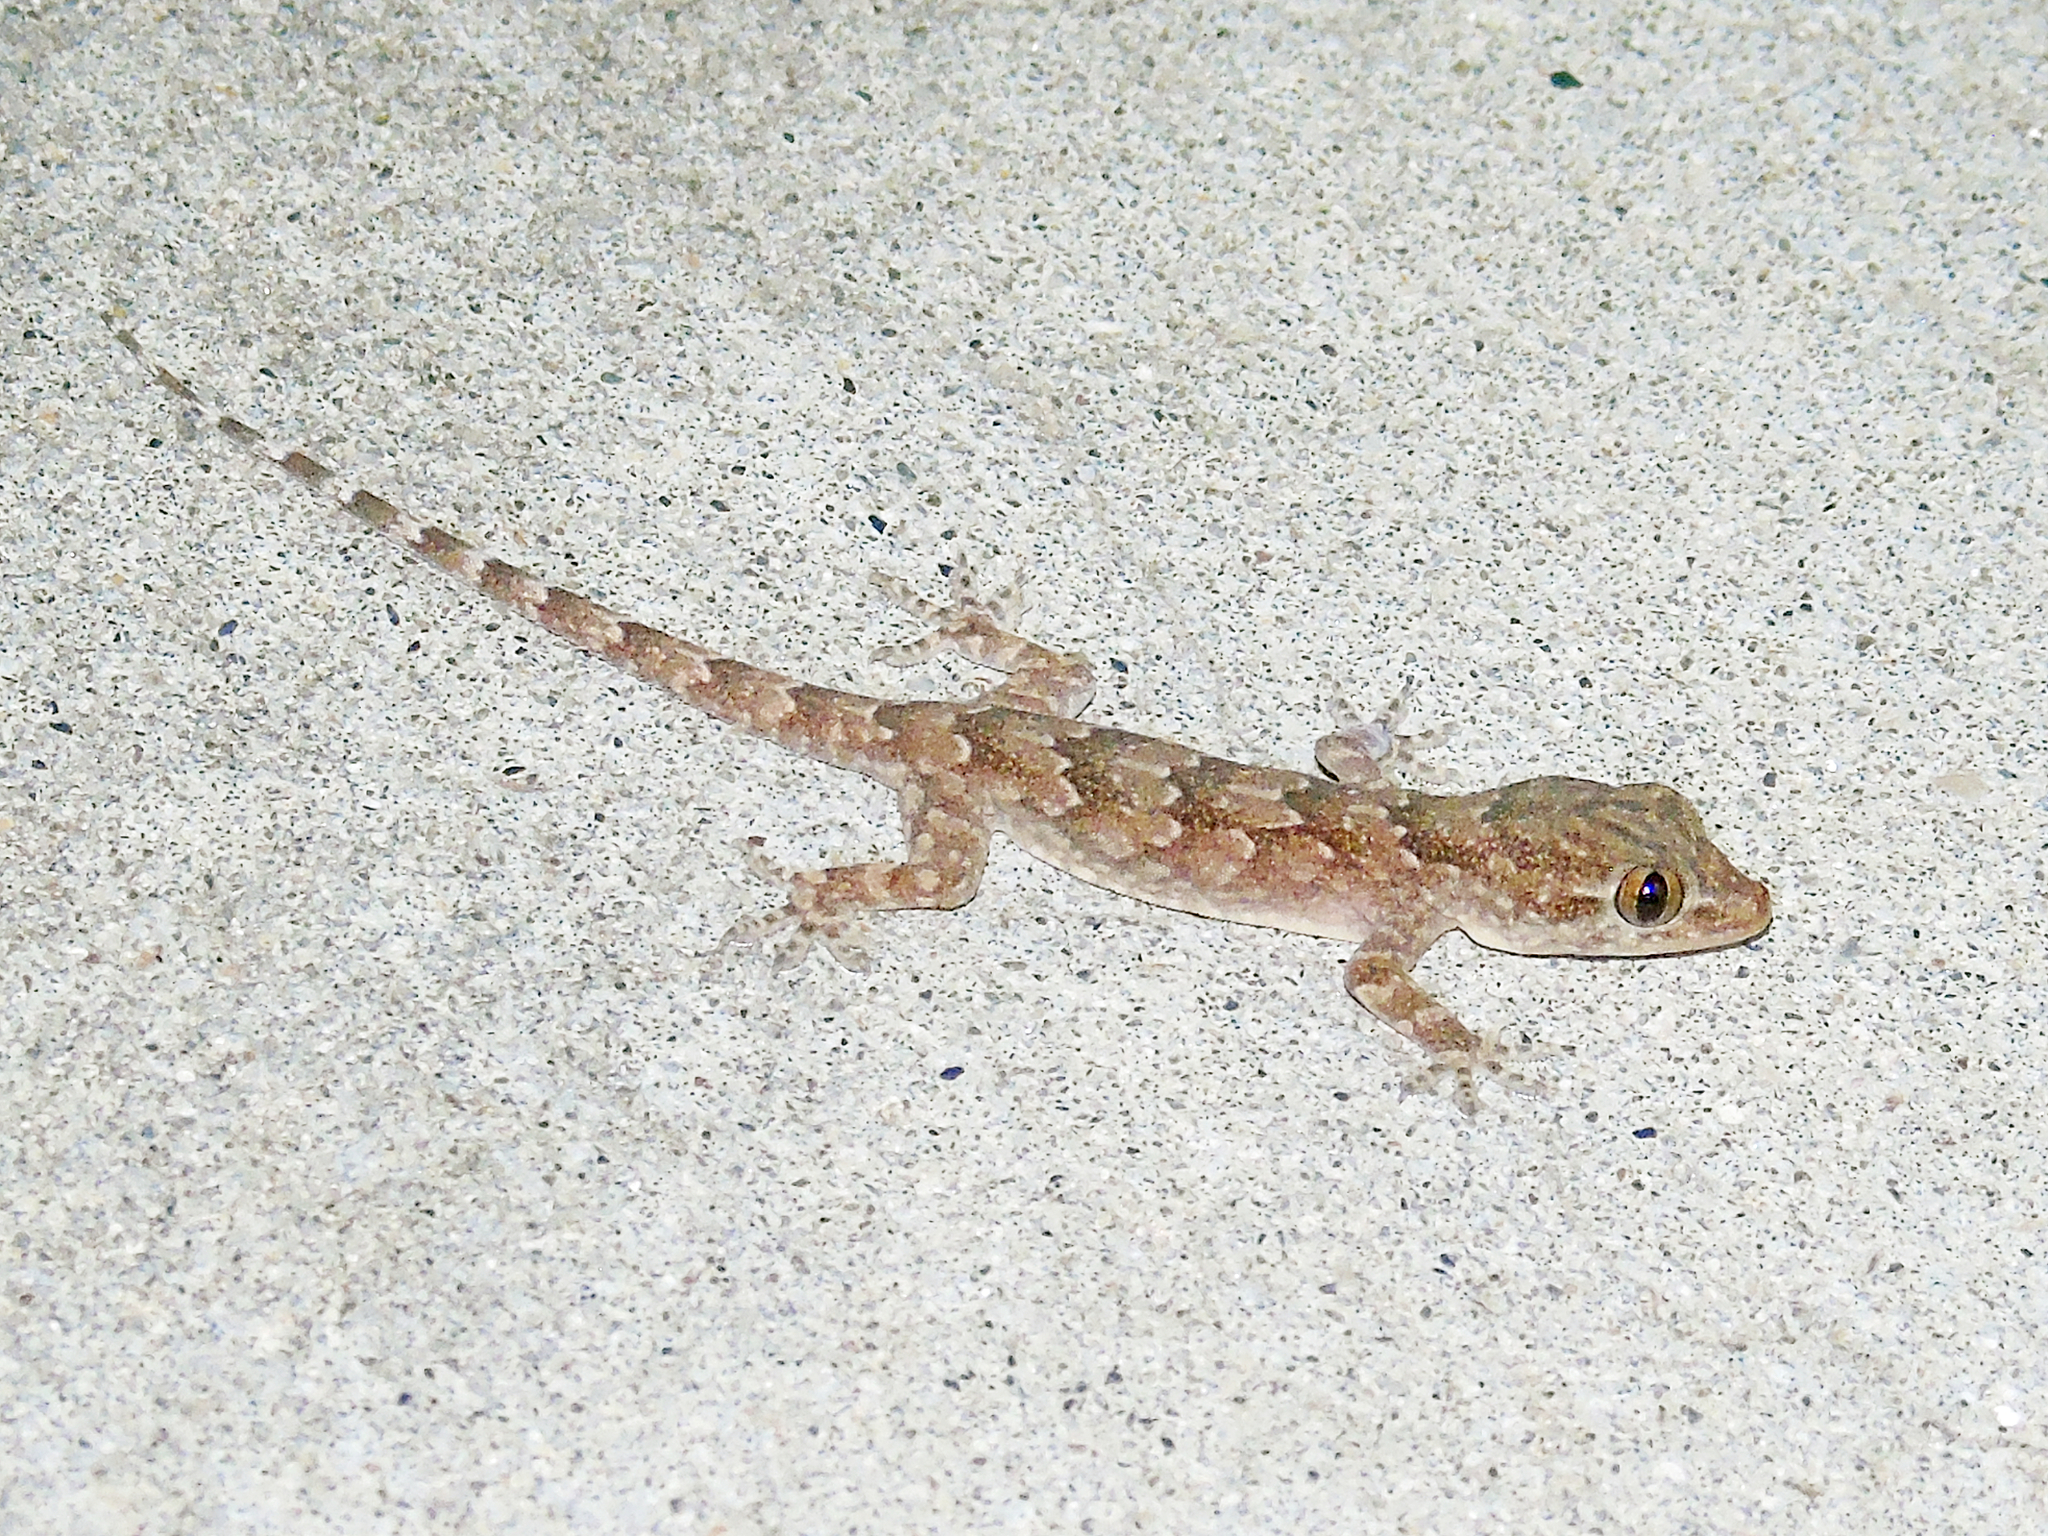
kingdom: Animalia
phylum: Chordata
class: Squamata
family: Gekkonidae
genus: Hemidactylus
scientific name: Hemidactylus flaviviridis
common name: Northern house gecko
